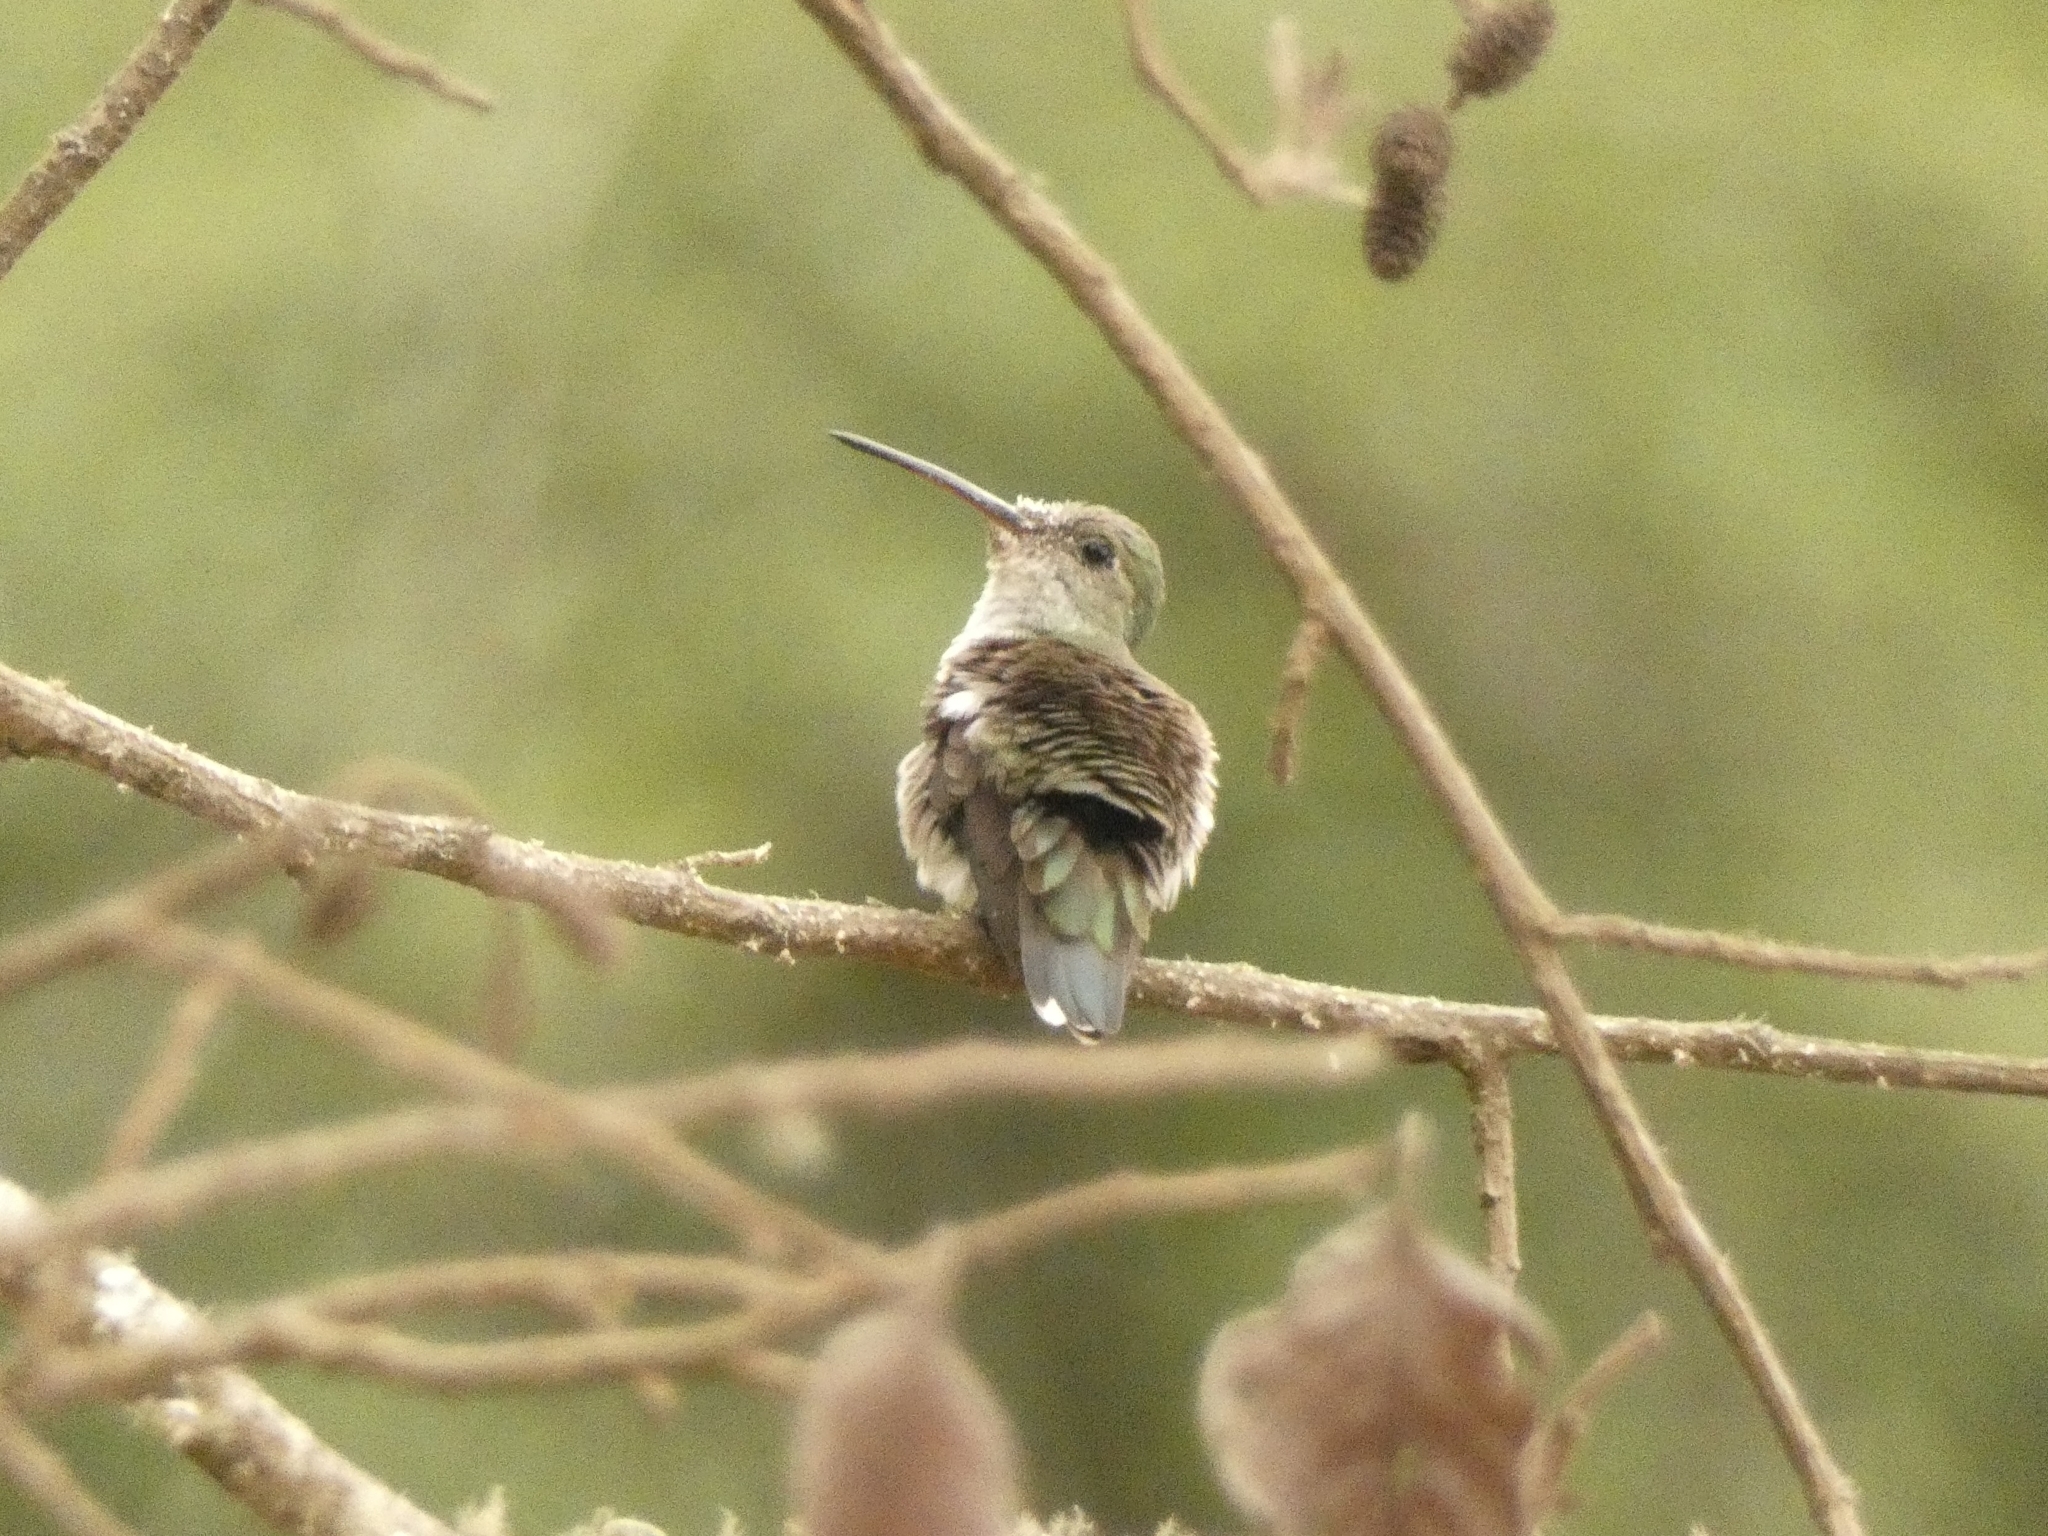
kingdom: Animalia
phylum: Chordata
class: Aves
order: Apodiformes
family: Trochilidae
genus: Elliotomyia
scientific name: Elliotomyia chionogaster
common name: White-bellied hummingbird
